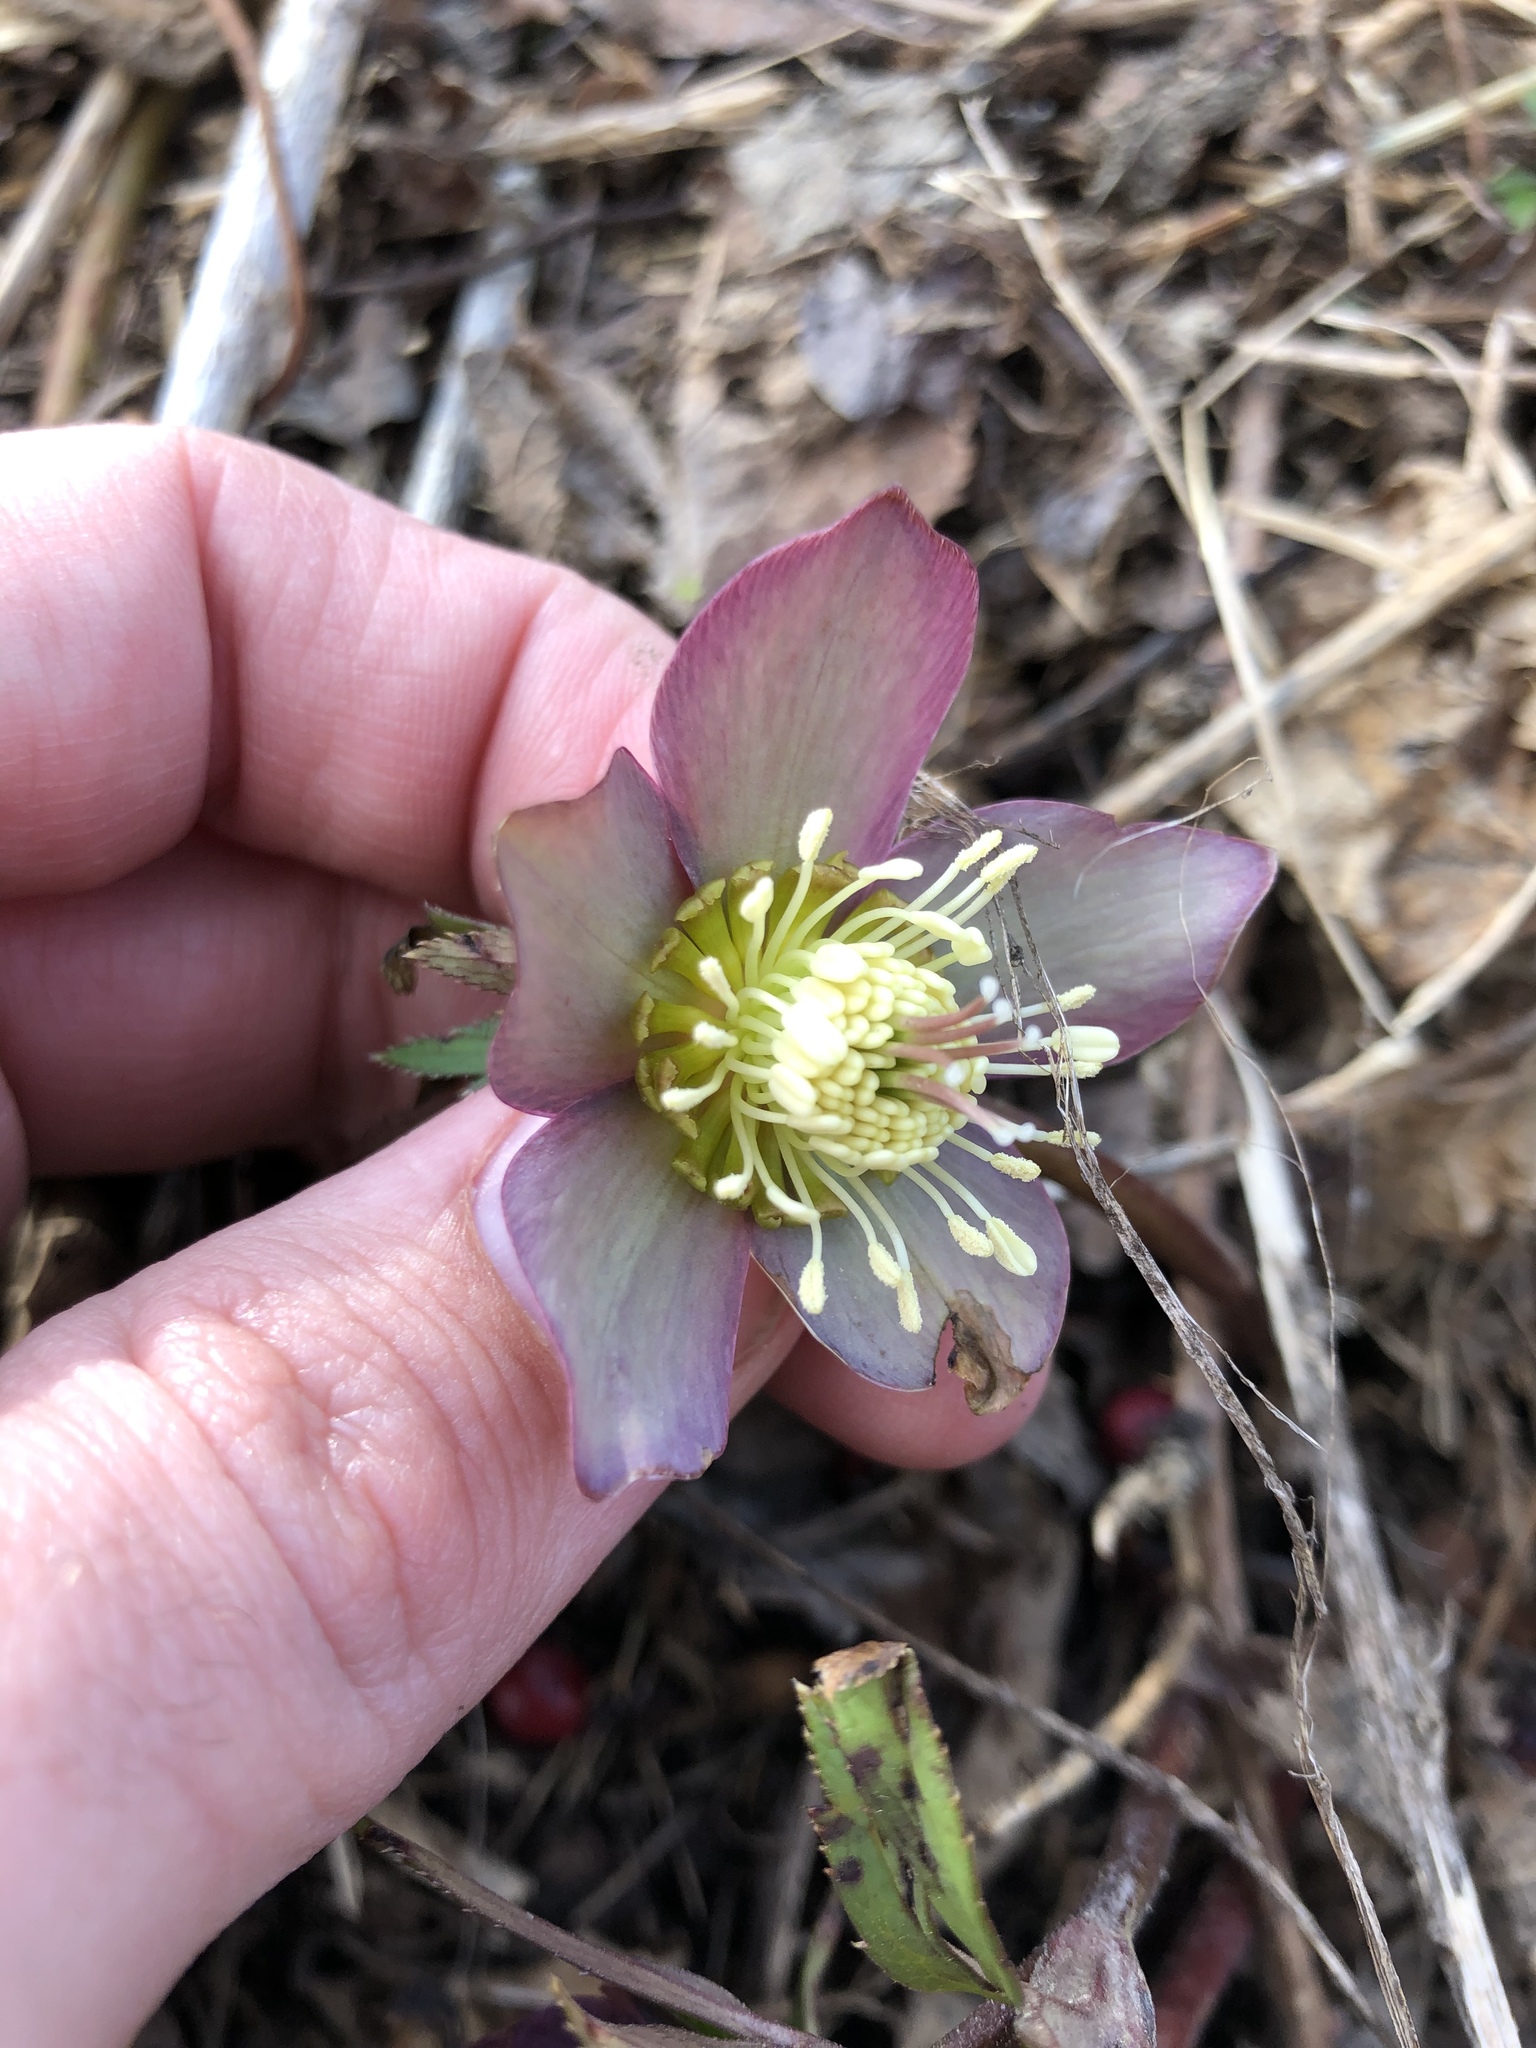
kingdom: Plantae
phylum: Tracheophyta
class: Magnoliopsida
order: Ranunculales
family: Ranunculaceae
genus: Helleborus
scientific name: Helleborus purpurascens
